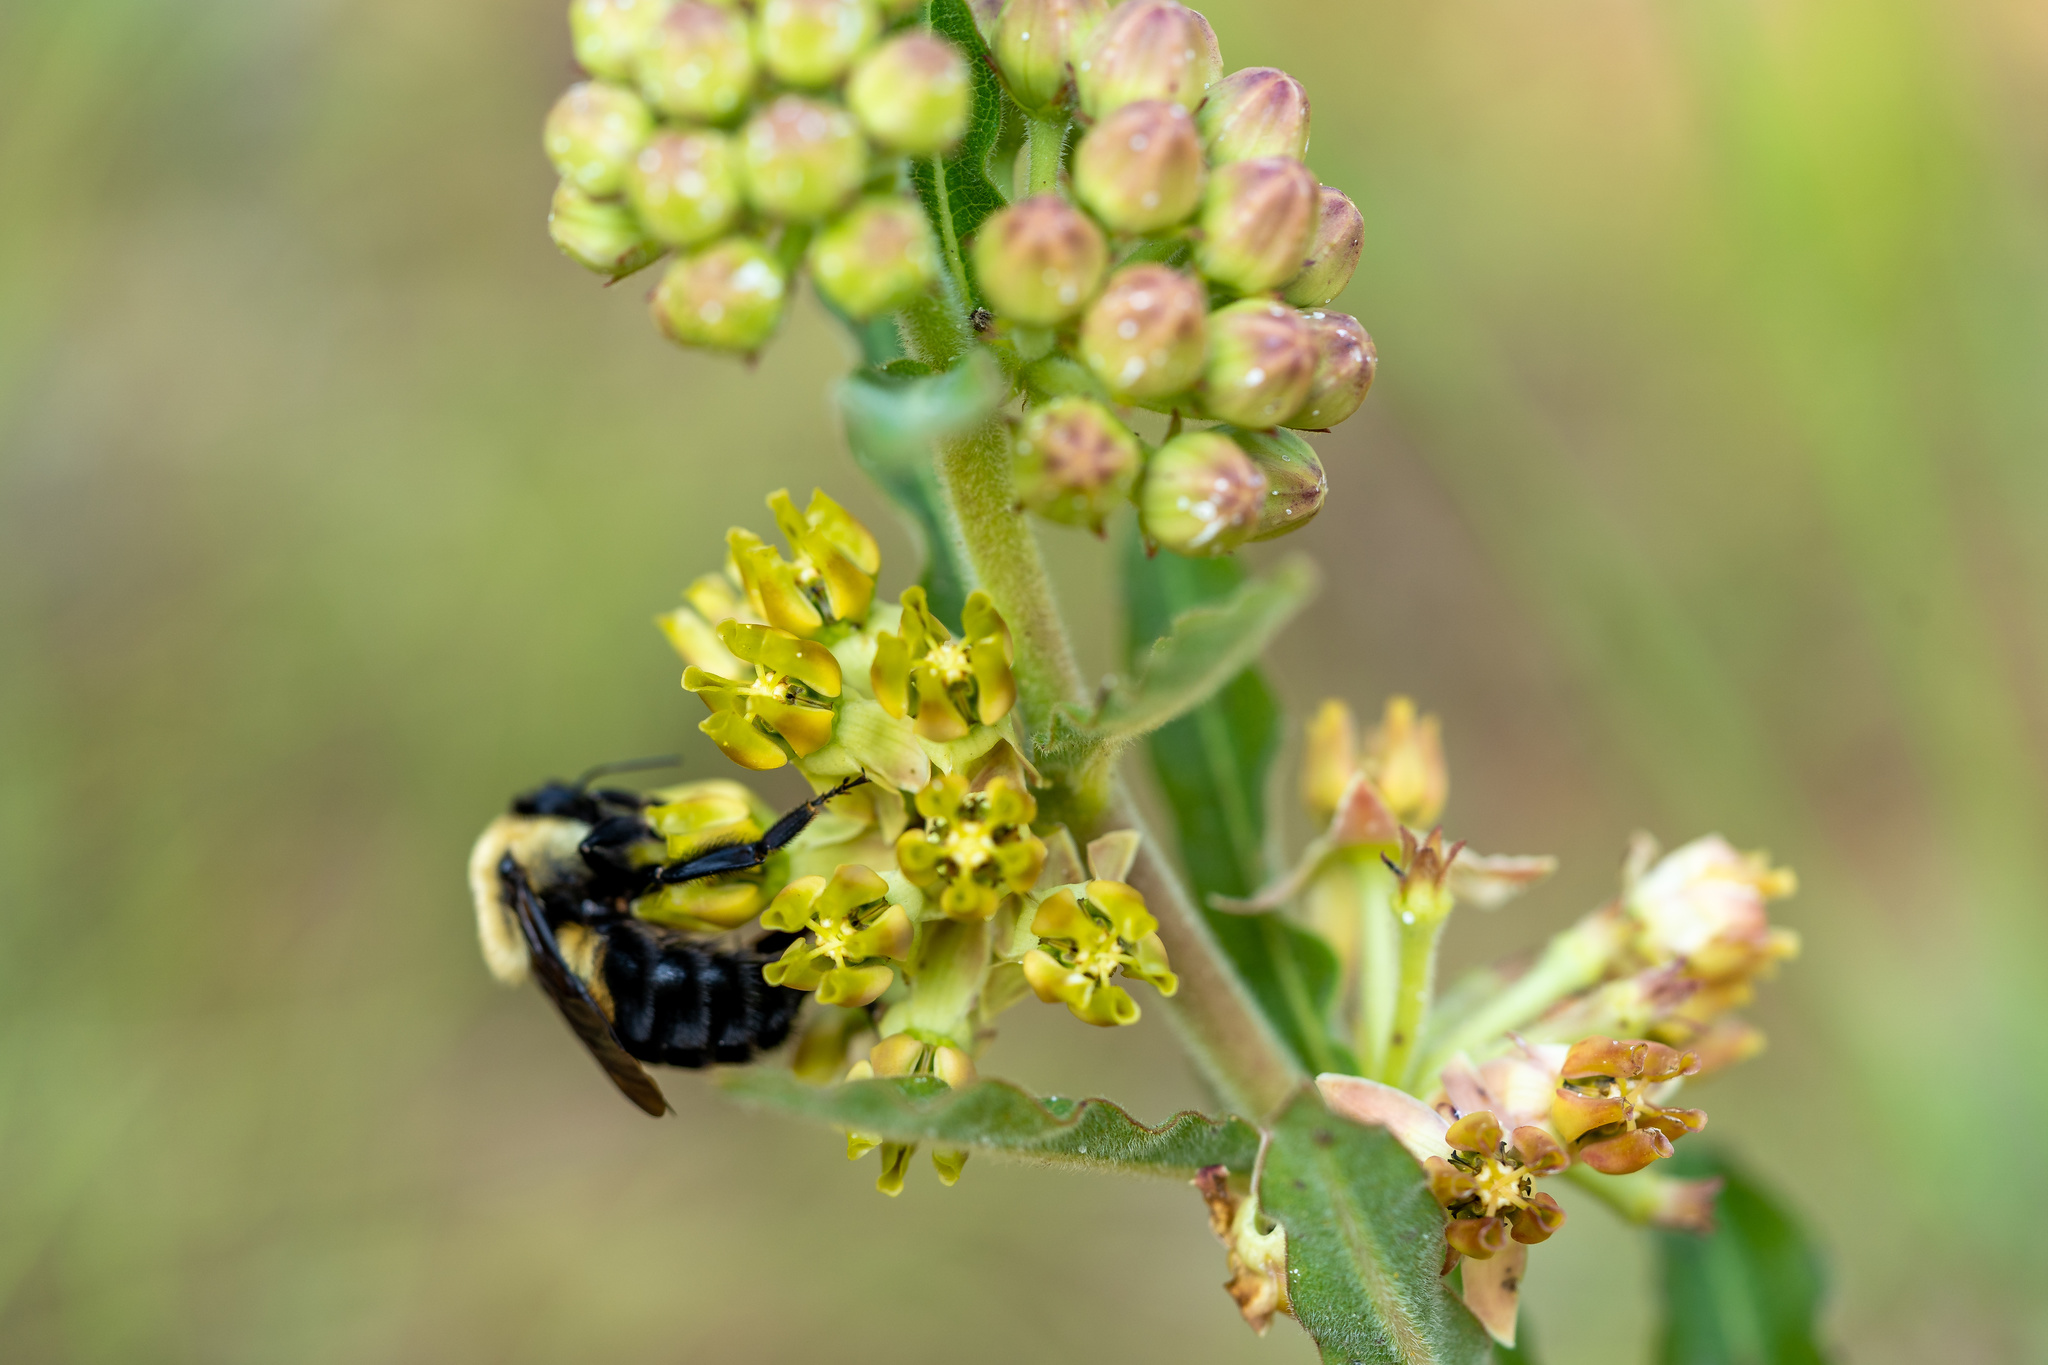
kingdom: Animalia
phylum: Arthropoda
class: Insecta
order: Hymenoptera
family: Apidae
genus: Bombus
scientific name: Bombus griseocollis
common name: Brown-belted bumble bee
